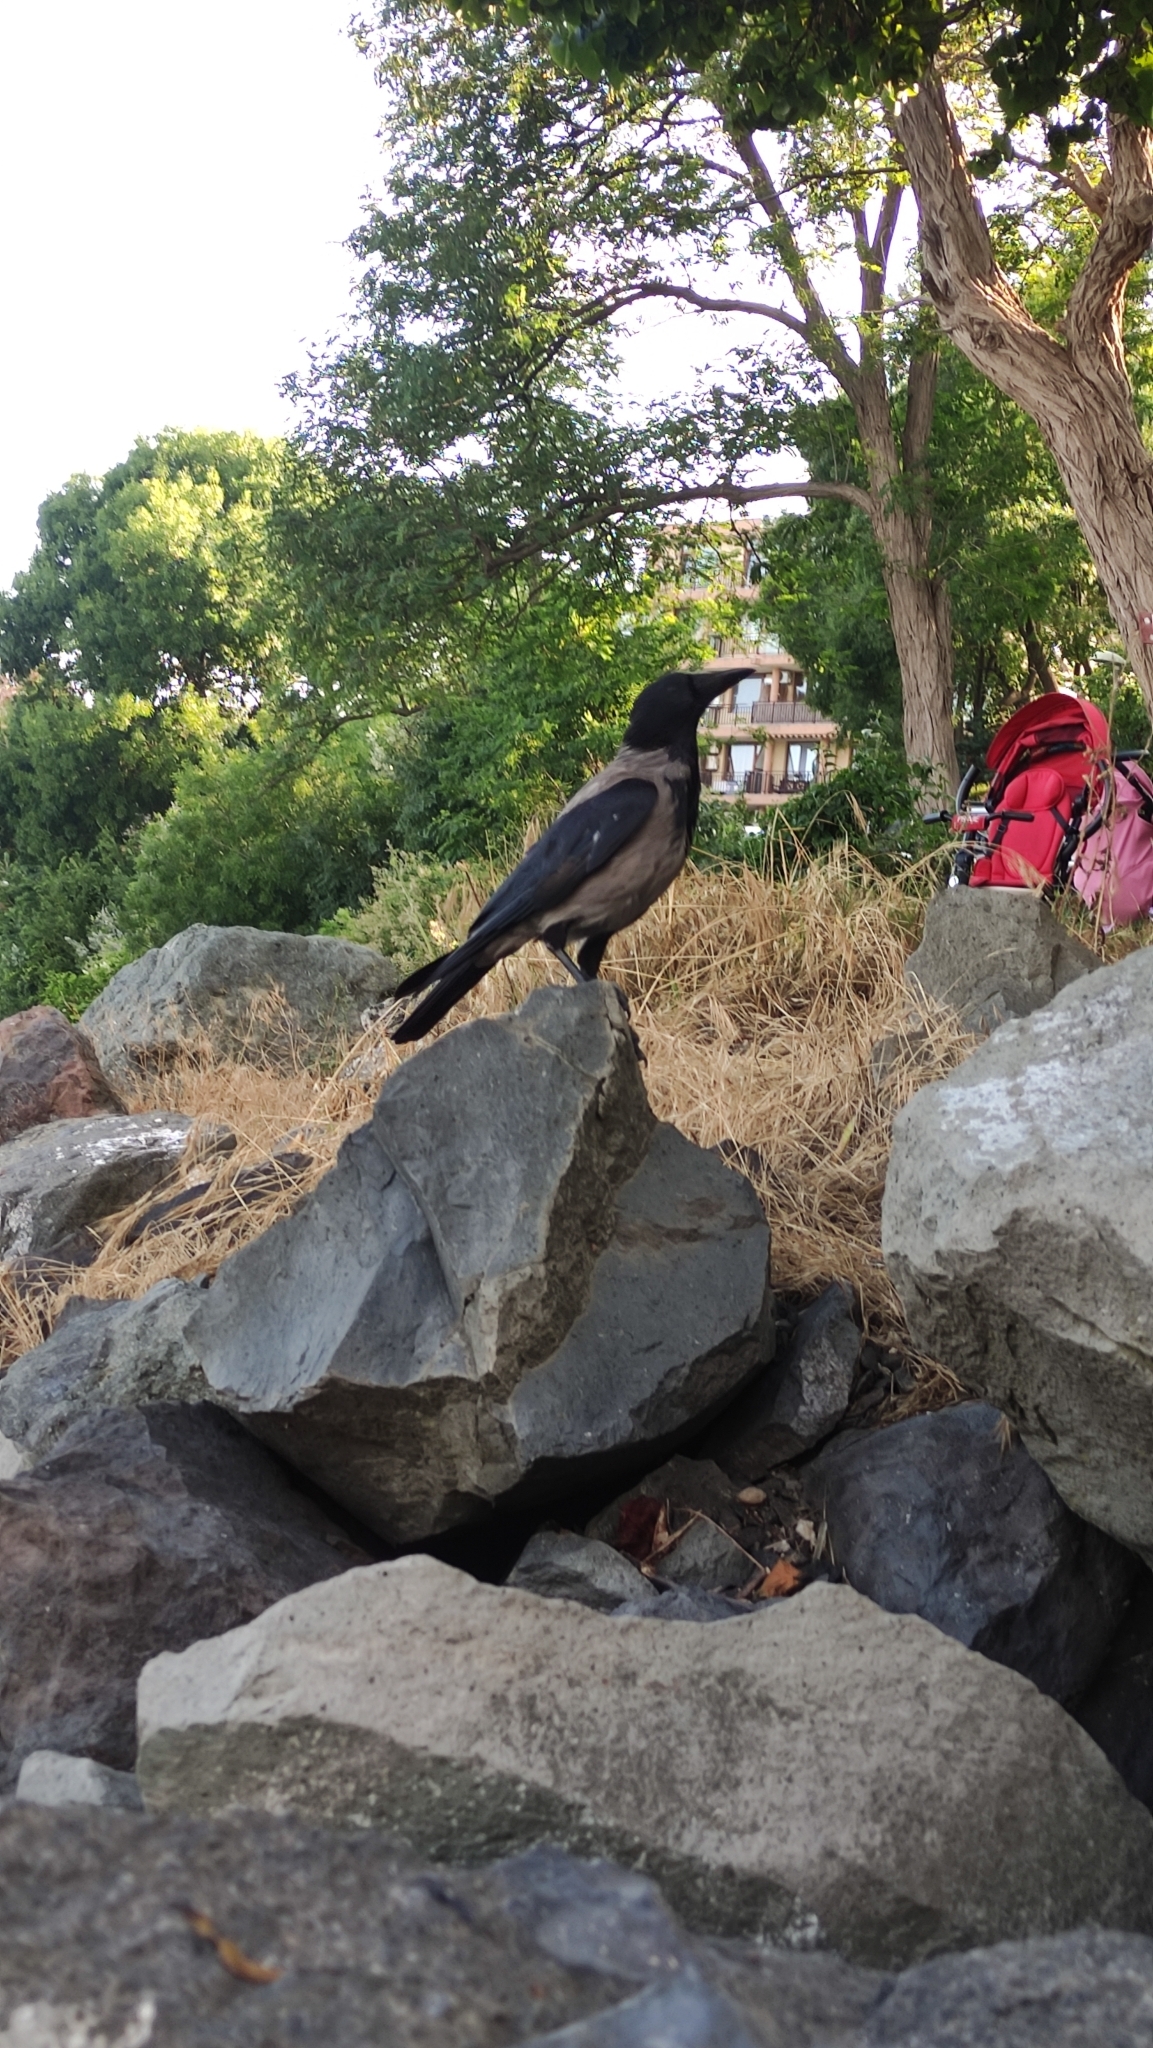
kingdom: Animalia
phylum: Chordata
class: Aves
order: Passeriformes
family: Corvidae
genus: Corvus
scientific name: Corvus cornix
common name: Hooded crow
